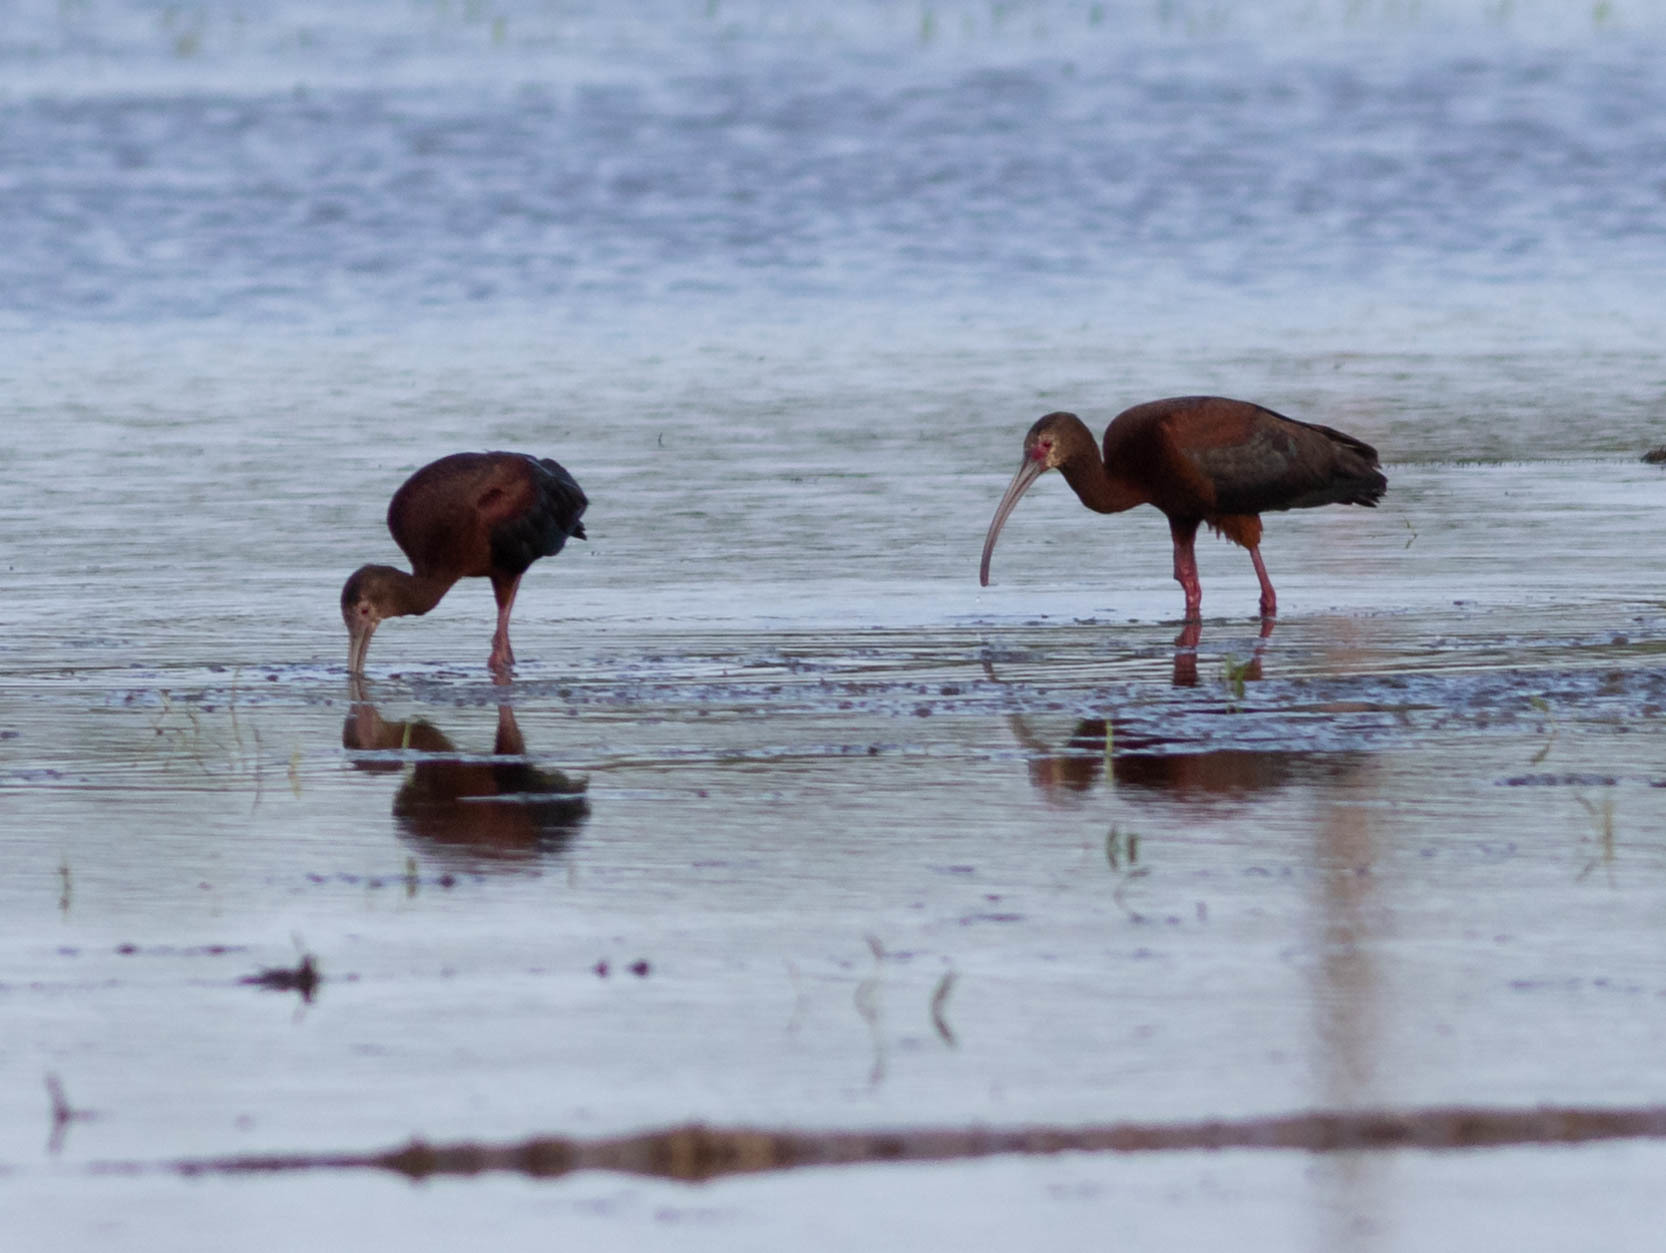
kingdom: Animalia
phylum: Chordata
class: Aves
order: Pelecaniformes
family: Threskiornithidae
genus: Plegadis
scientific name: Plegadis chihi
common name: White-faced ibis
